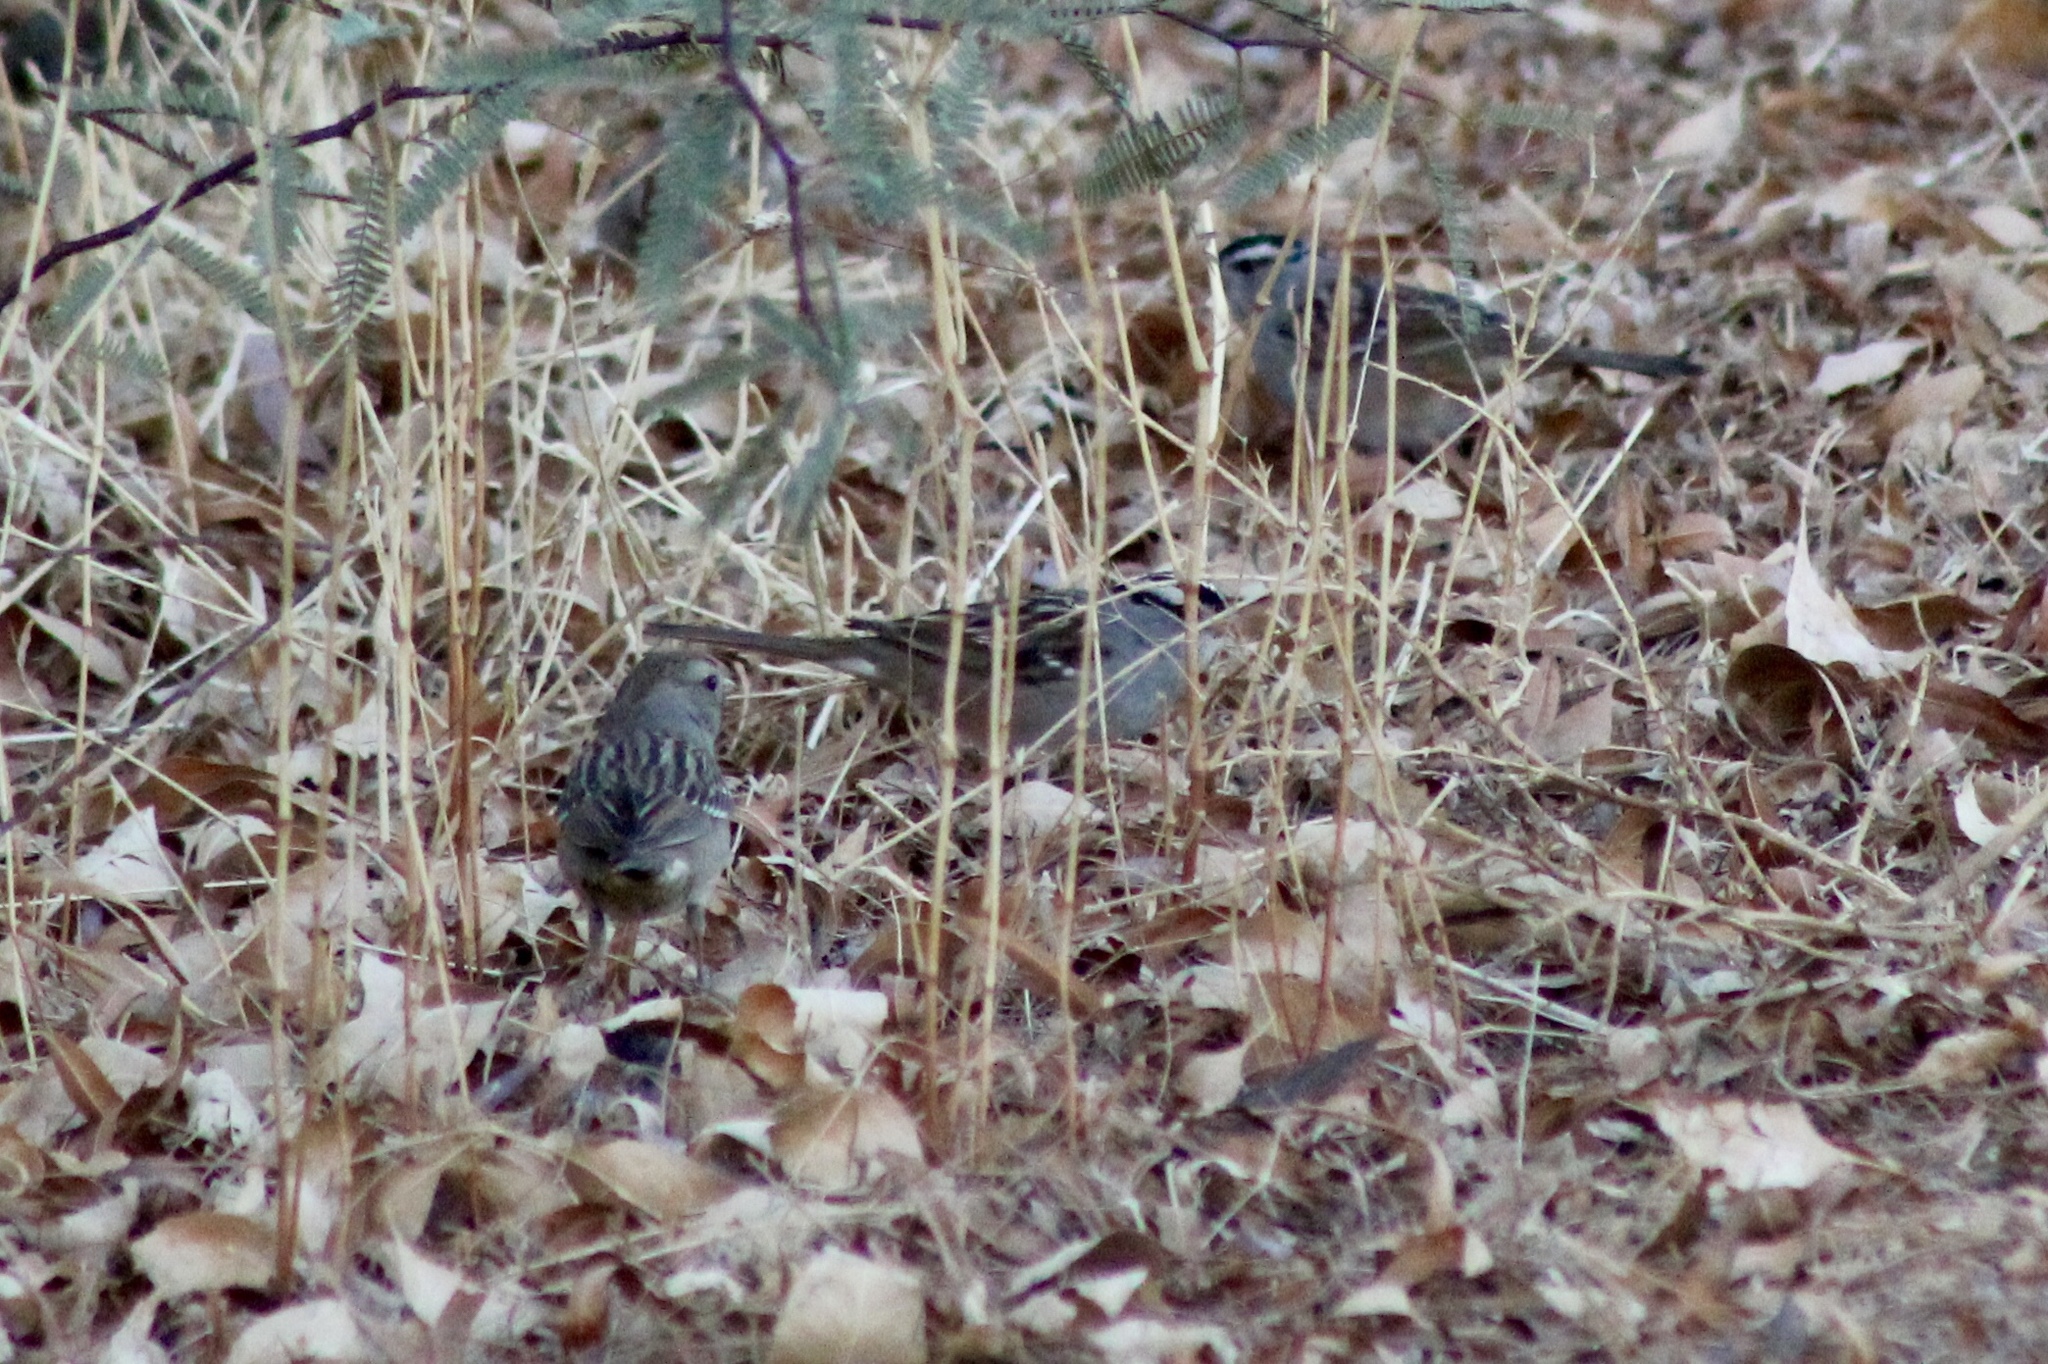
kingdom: Animalia
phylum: Chordata
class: Aves
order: Passeriformes
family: Passerellidae
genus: Zonotrichia
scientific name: Zonotrichia leucophrys
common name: White-crowned sparrow
